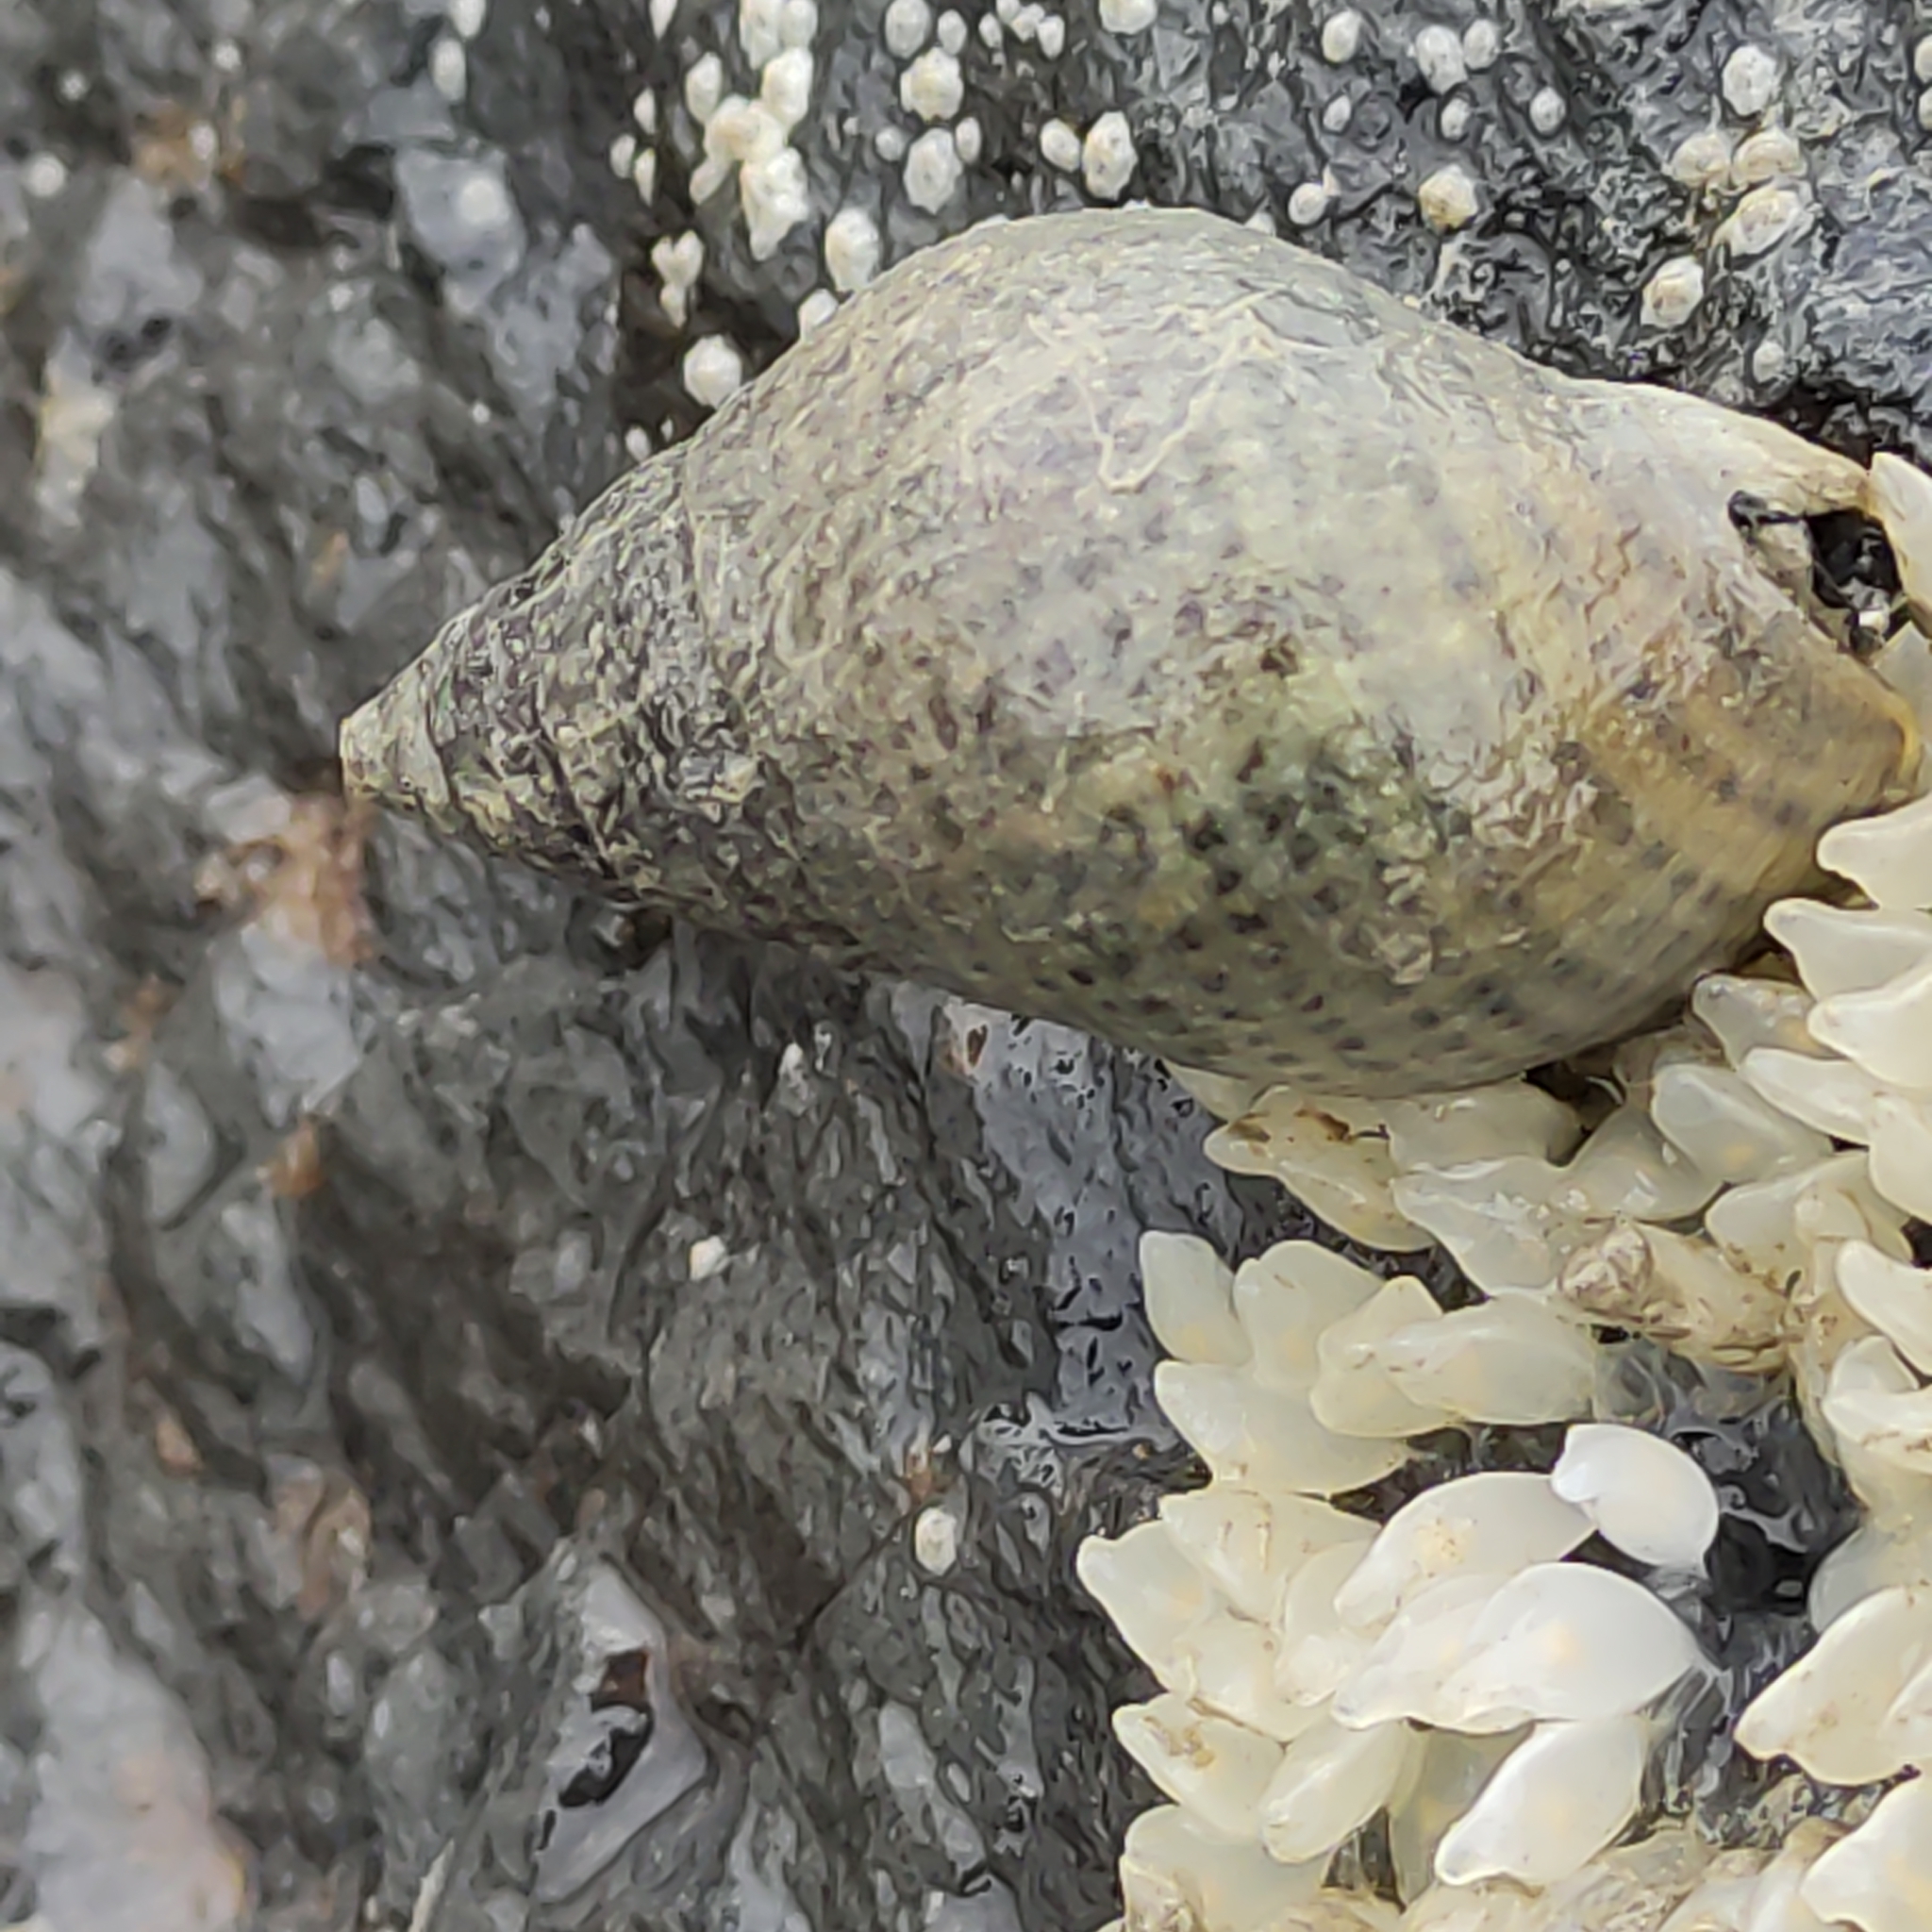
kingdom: Animalia
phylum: Mollusca
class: Gastropoda
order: Neogastropoda
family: Cominellidae
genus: Cominella
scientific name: Cominella maculosa
